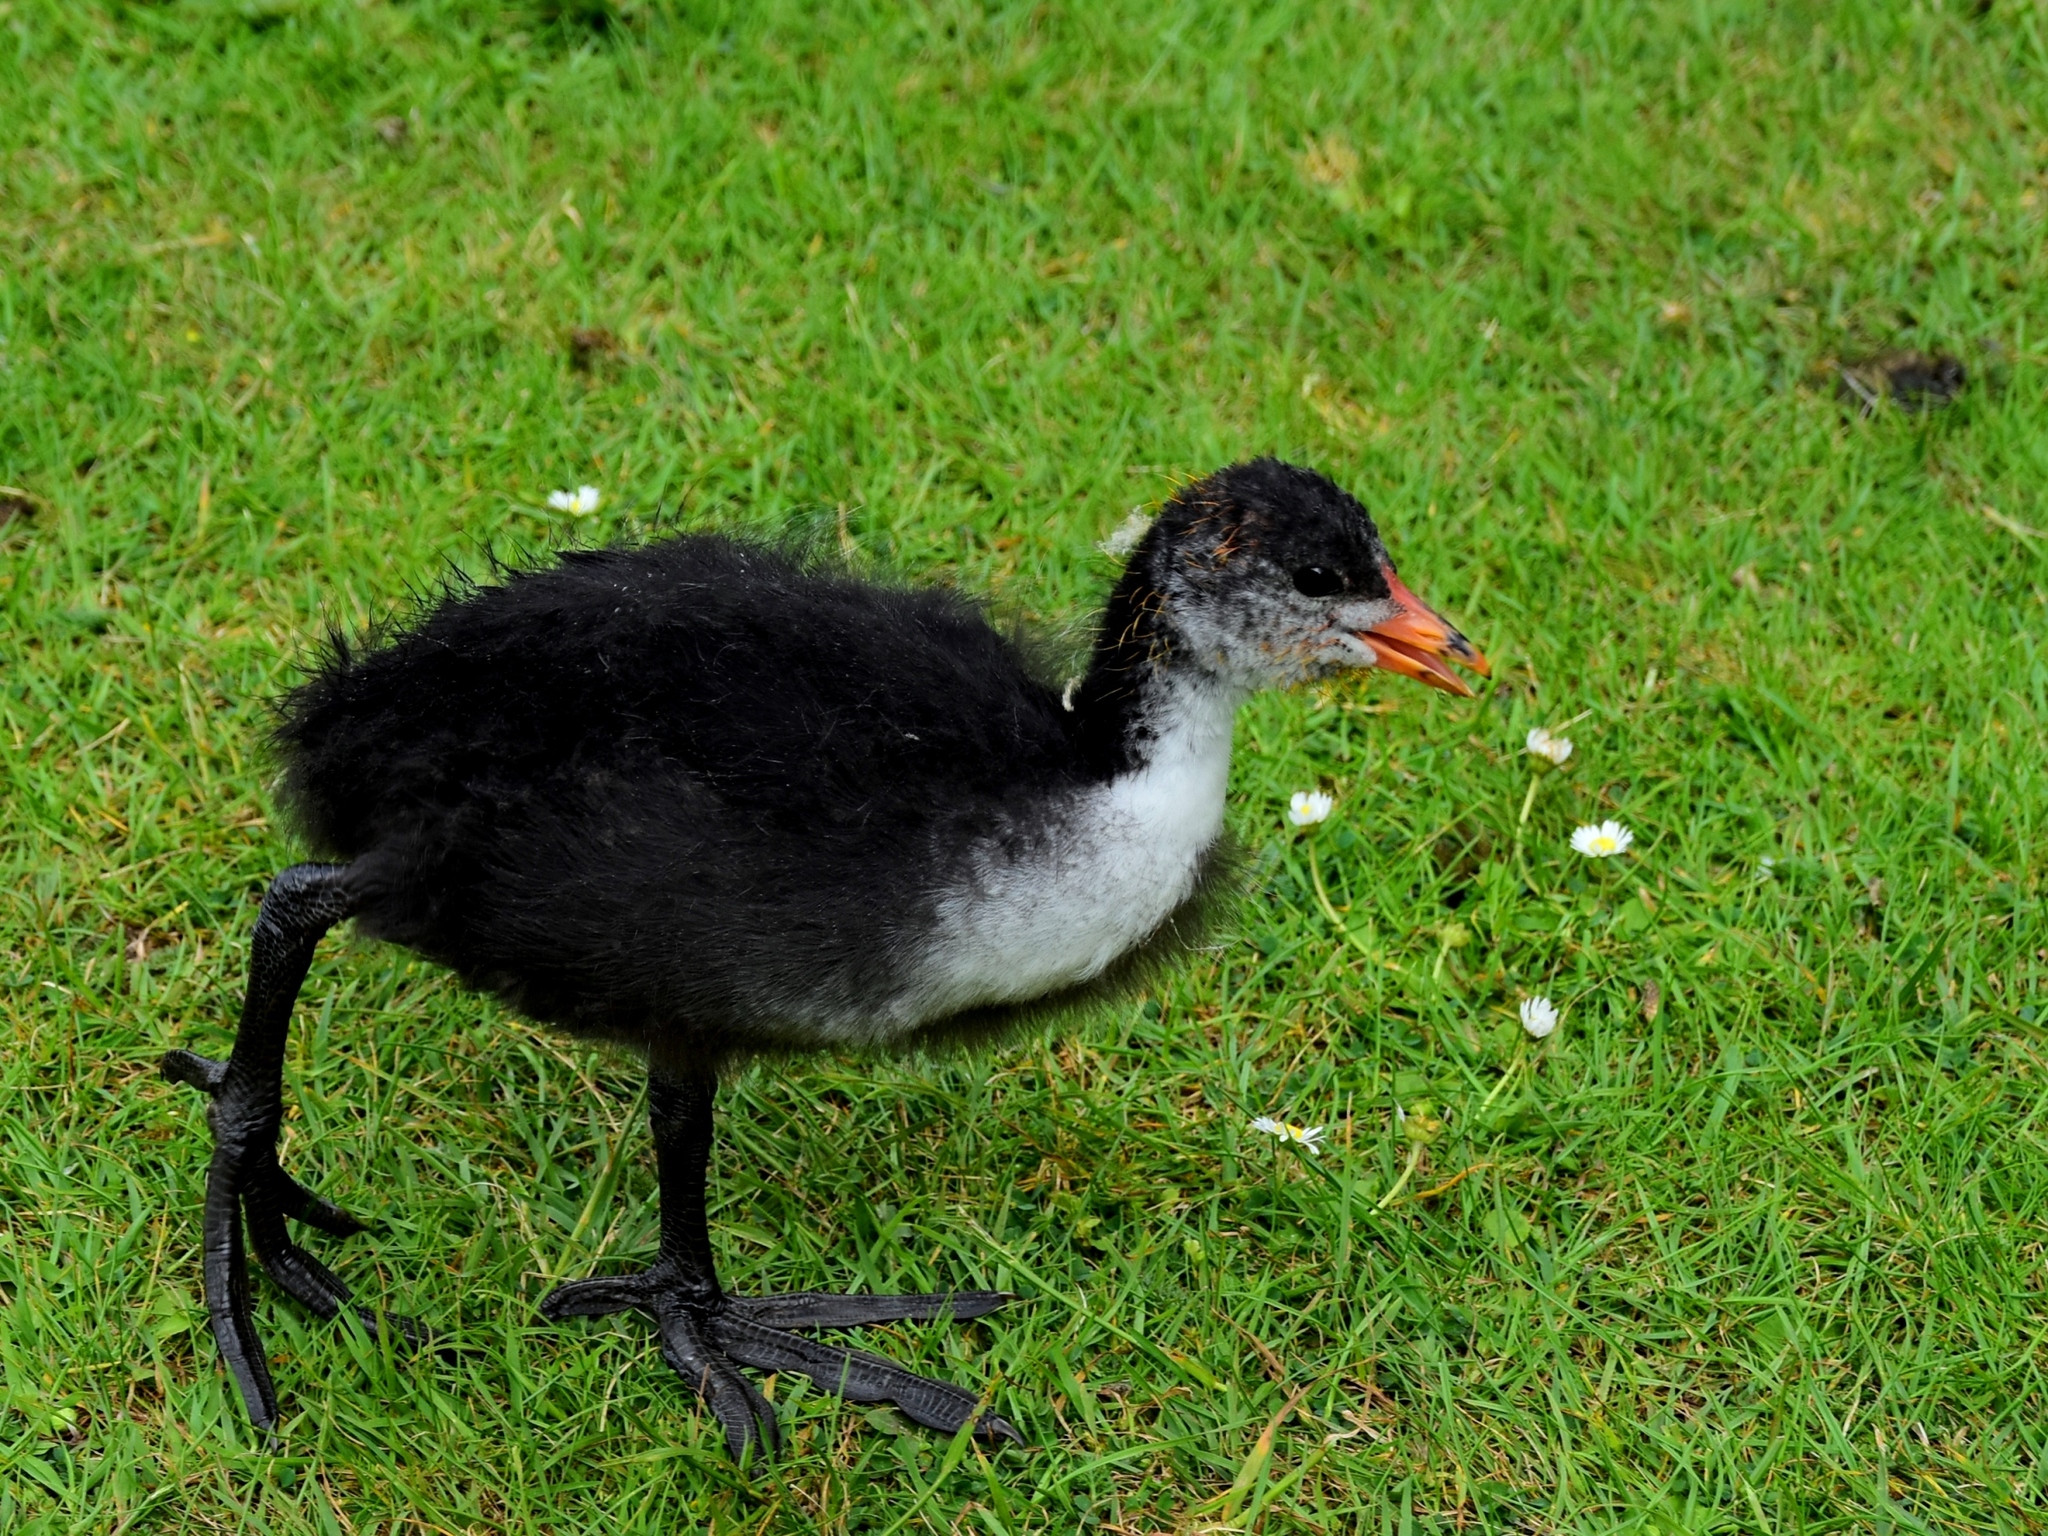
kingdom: Animalia
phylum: Chordata
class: Aves
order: Gruiformes
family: Rallidae
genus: Fulica
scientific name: Fulica atra
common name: Eurasian coot
